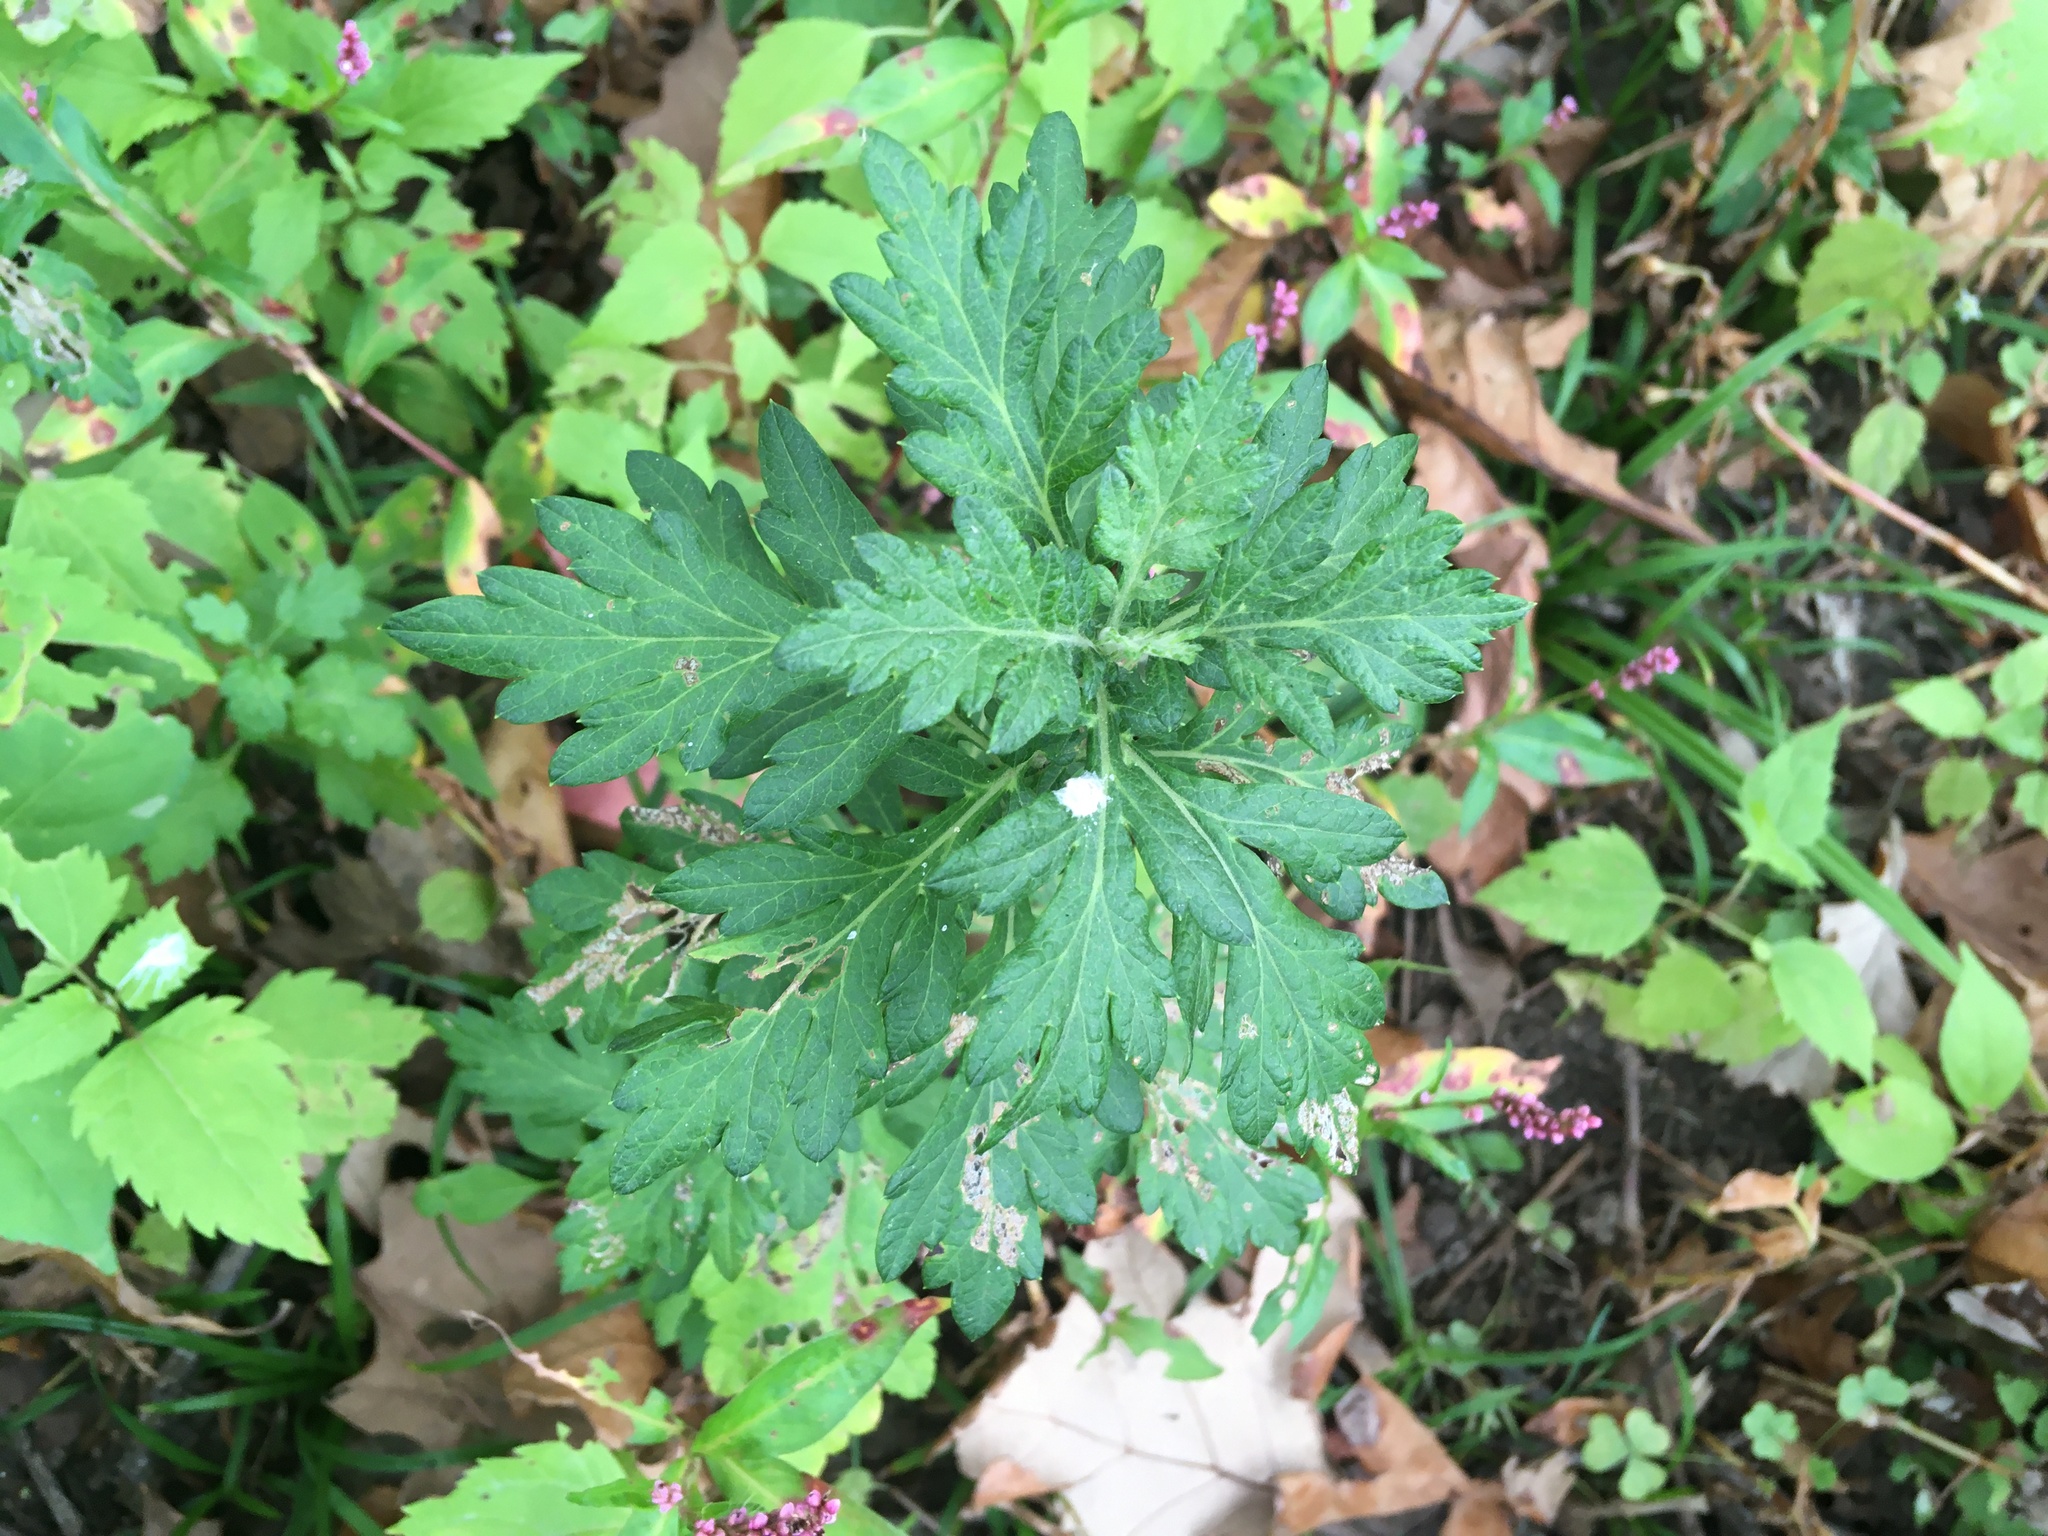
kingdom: Plantae
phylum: Tracheophyta
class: Magnoliopsida
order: Asterales
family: Asteraceae
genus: Artemisia
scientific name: Artemisia vulgaris
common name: Mugwort
